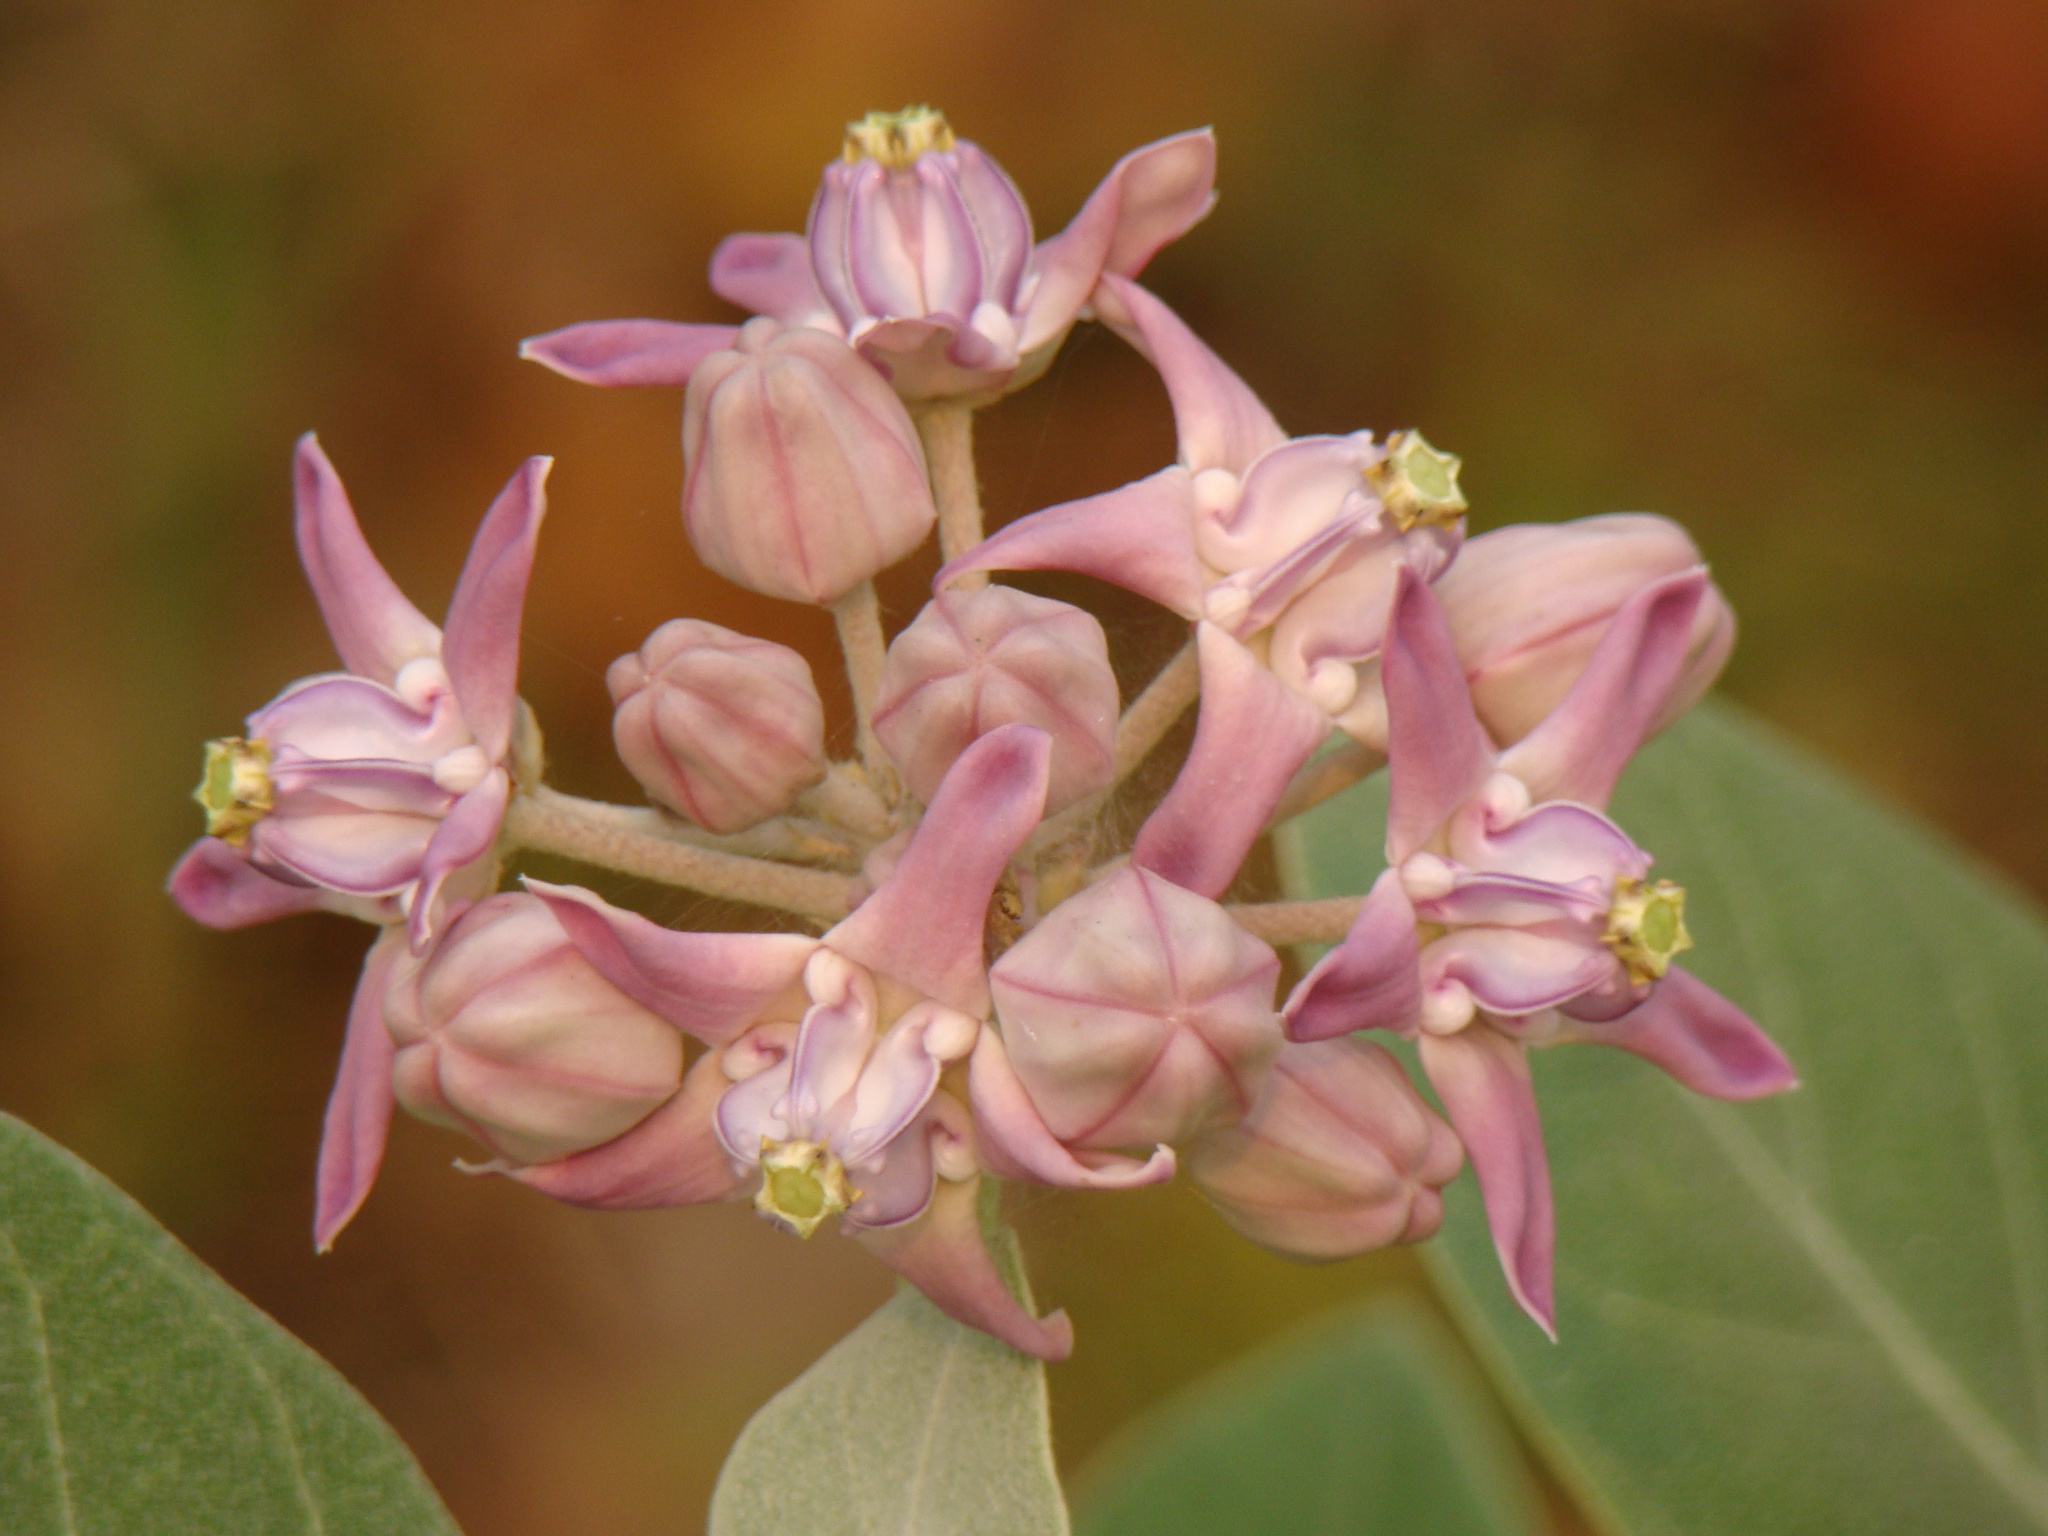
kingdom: Plantae
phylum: Tracheophyta
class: Magnoliopsida
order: Gentianales
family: Apocynaceae
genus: Calotropis
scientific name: Calotropis gigantea
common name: Crown flower
